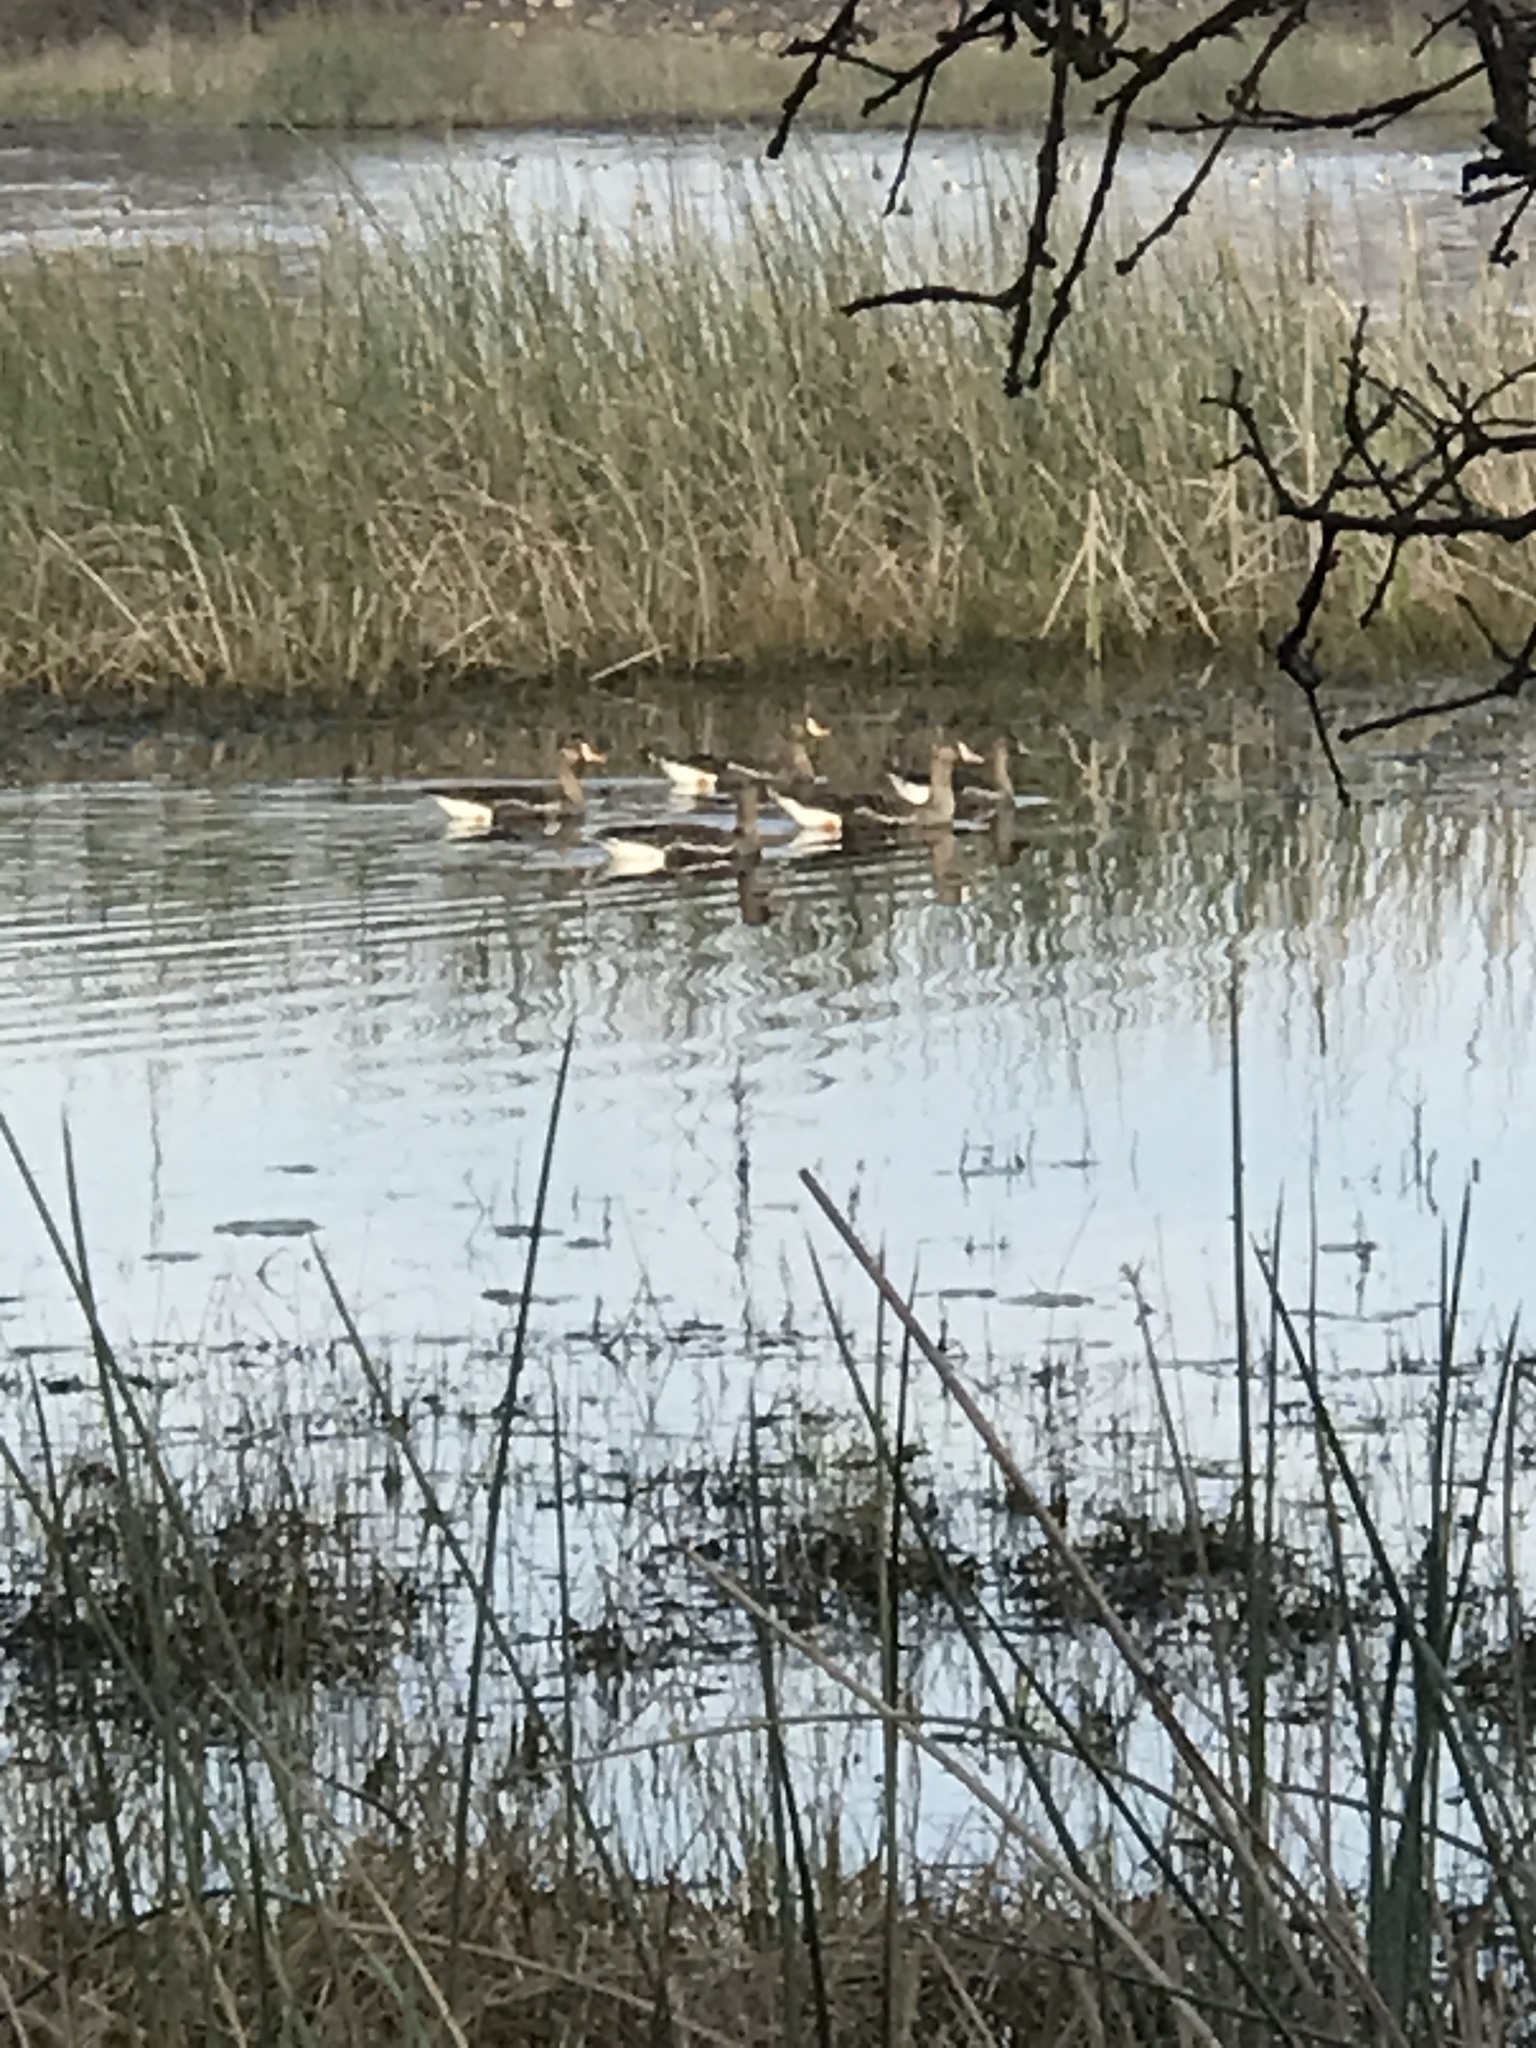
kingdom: Animalia
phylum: Chordata
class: Aves
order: Anseriformes
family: Anatidae
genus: Anser
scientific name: Anser albifrons
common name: Greater white-fronted goose
